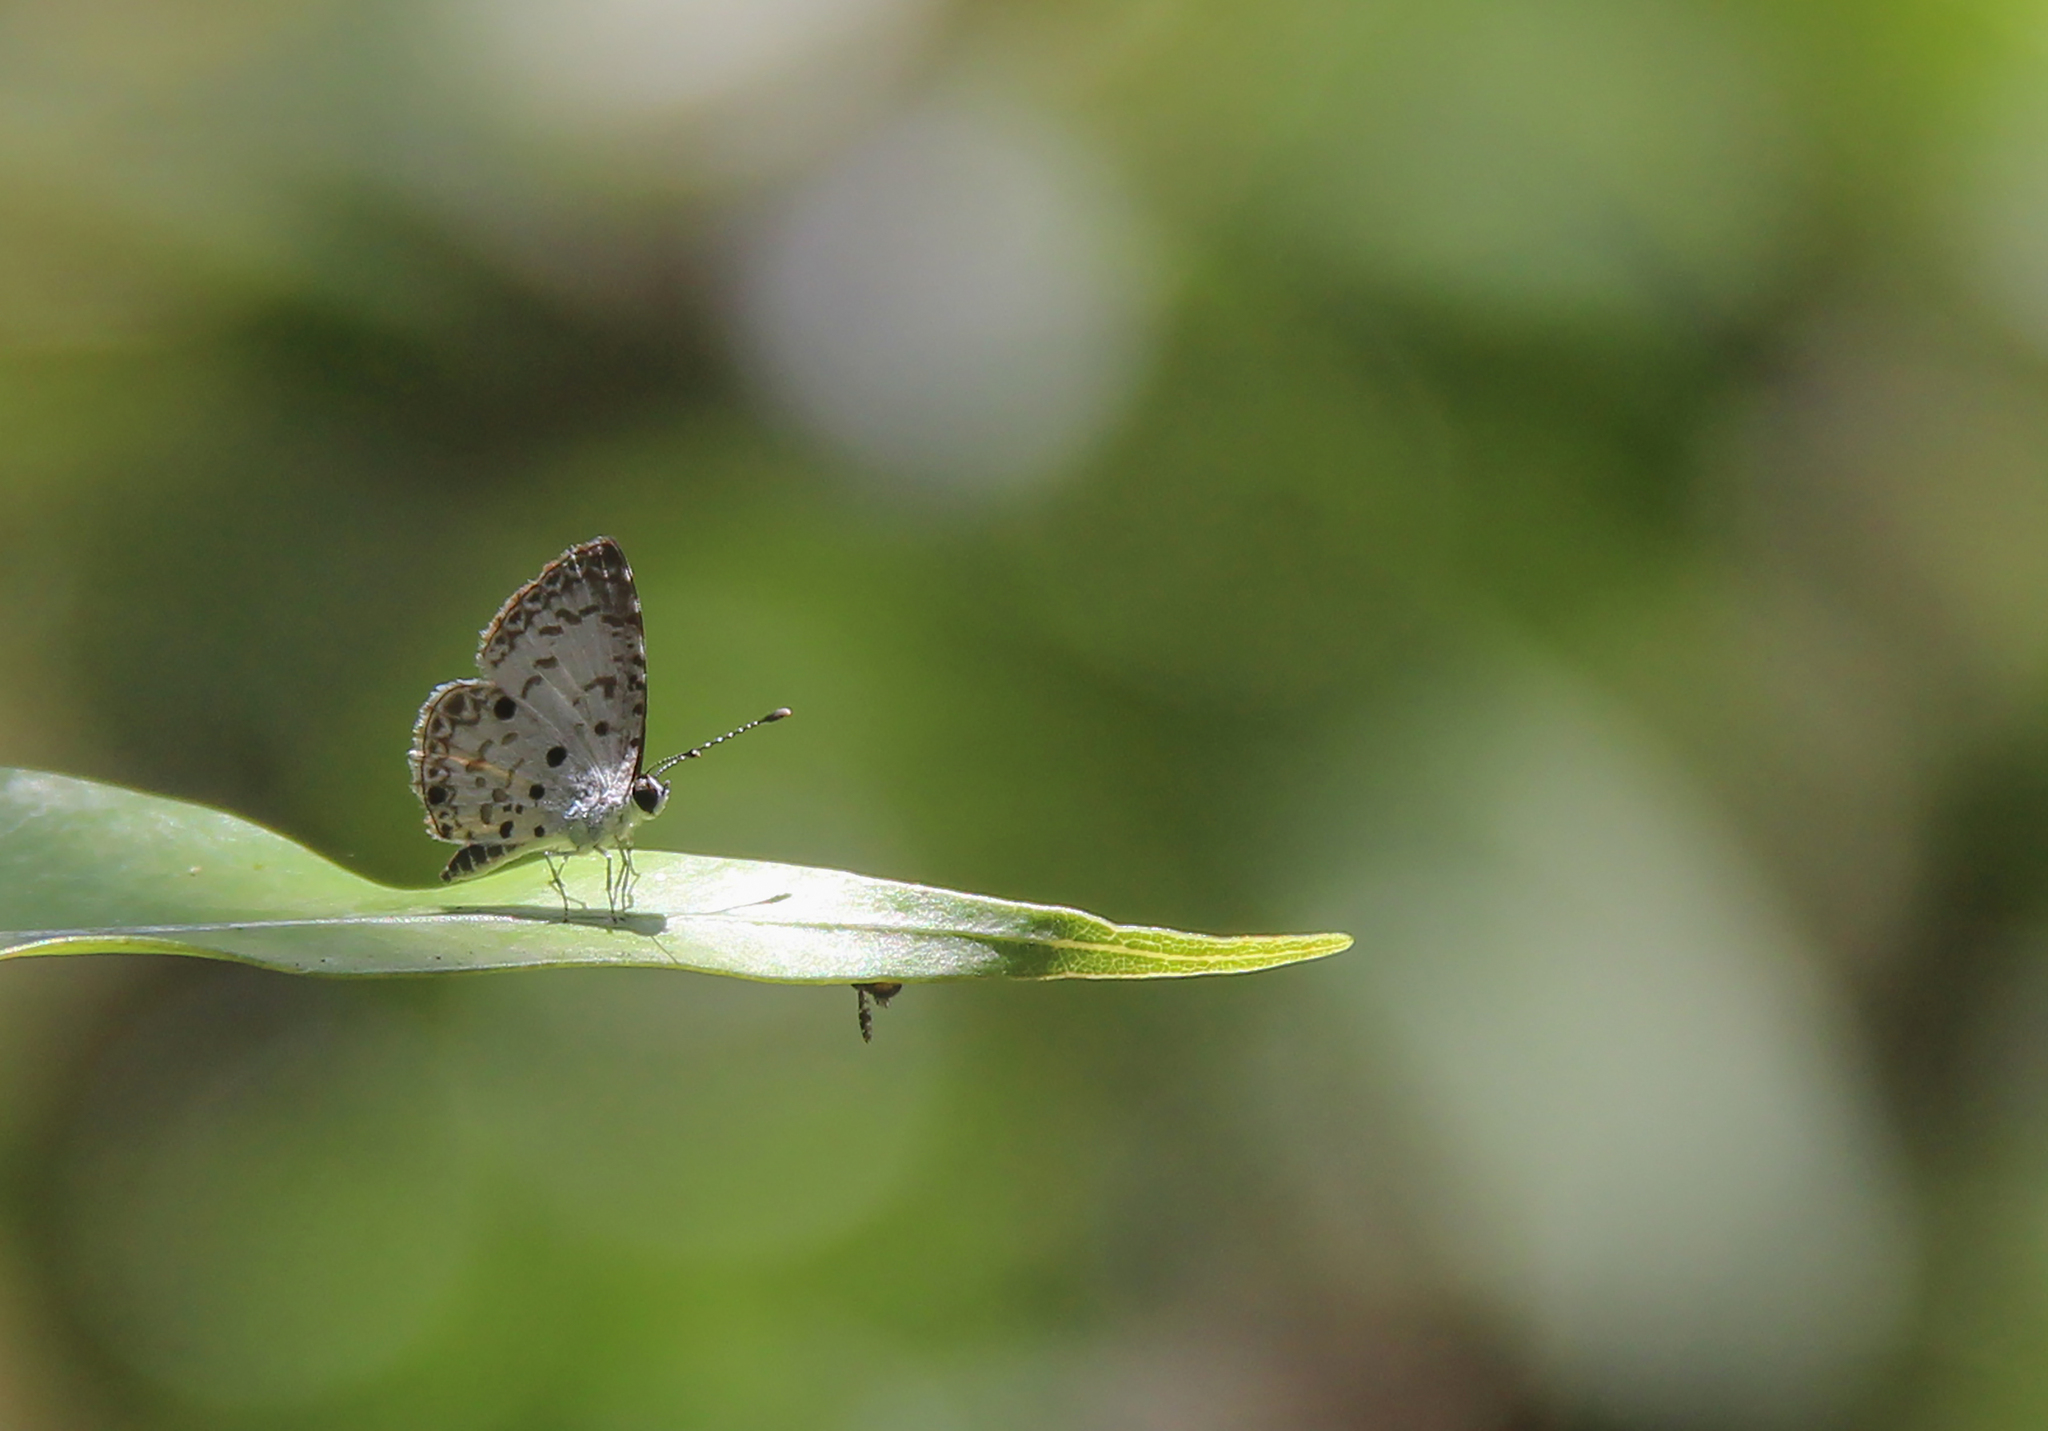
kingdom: Animalia
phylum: Arthropoda
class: Insecta
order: Lepidoptera
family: Lycaenidae
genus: Megisba
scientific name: Megisba malaya
